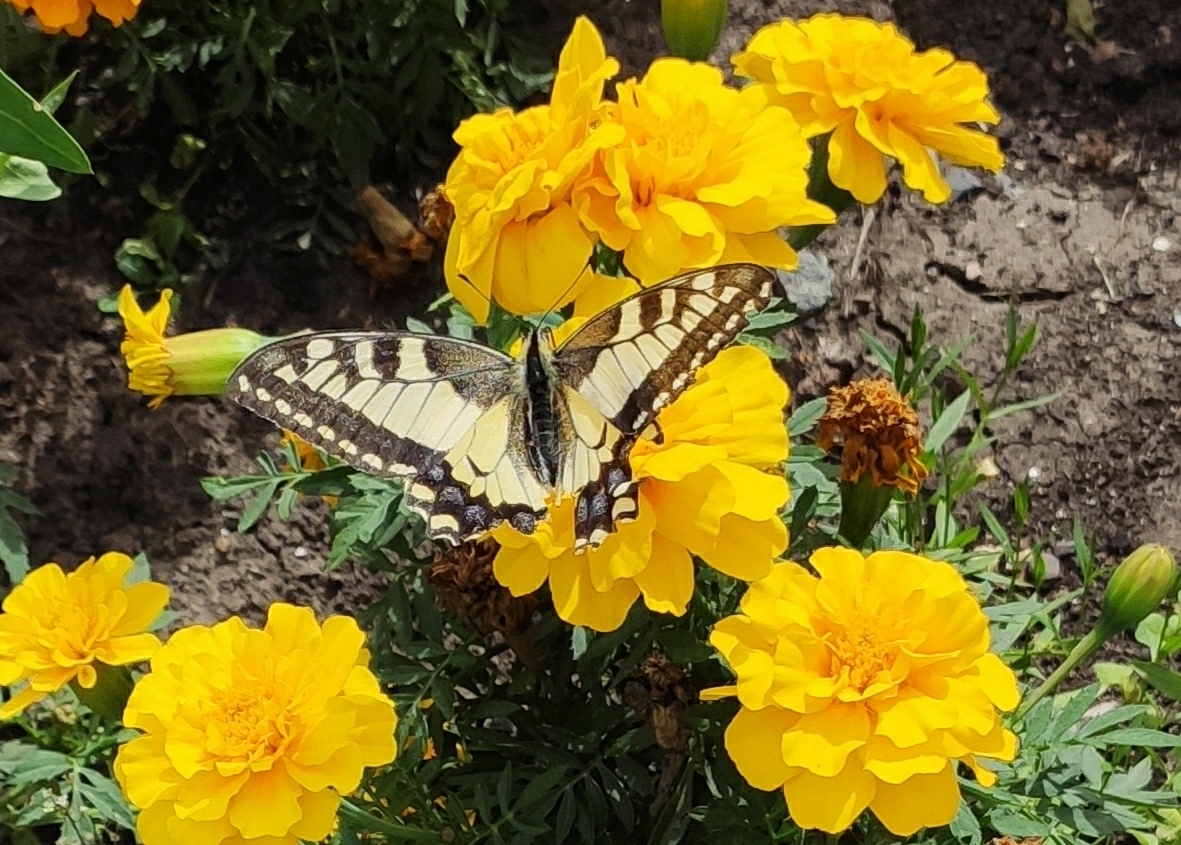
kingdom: Animalia
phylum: Arthropoda
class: Insecta
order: Lepidoptera
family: Papilionidae
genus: Papilio
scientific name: Papilio machaon
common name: Swallowtail
